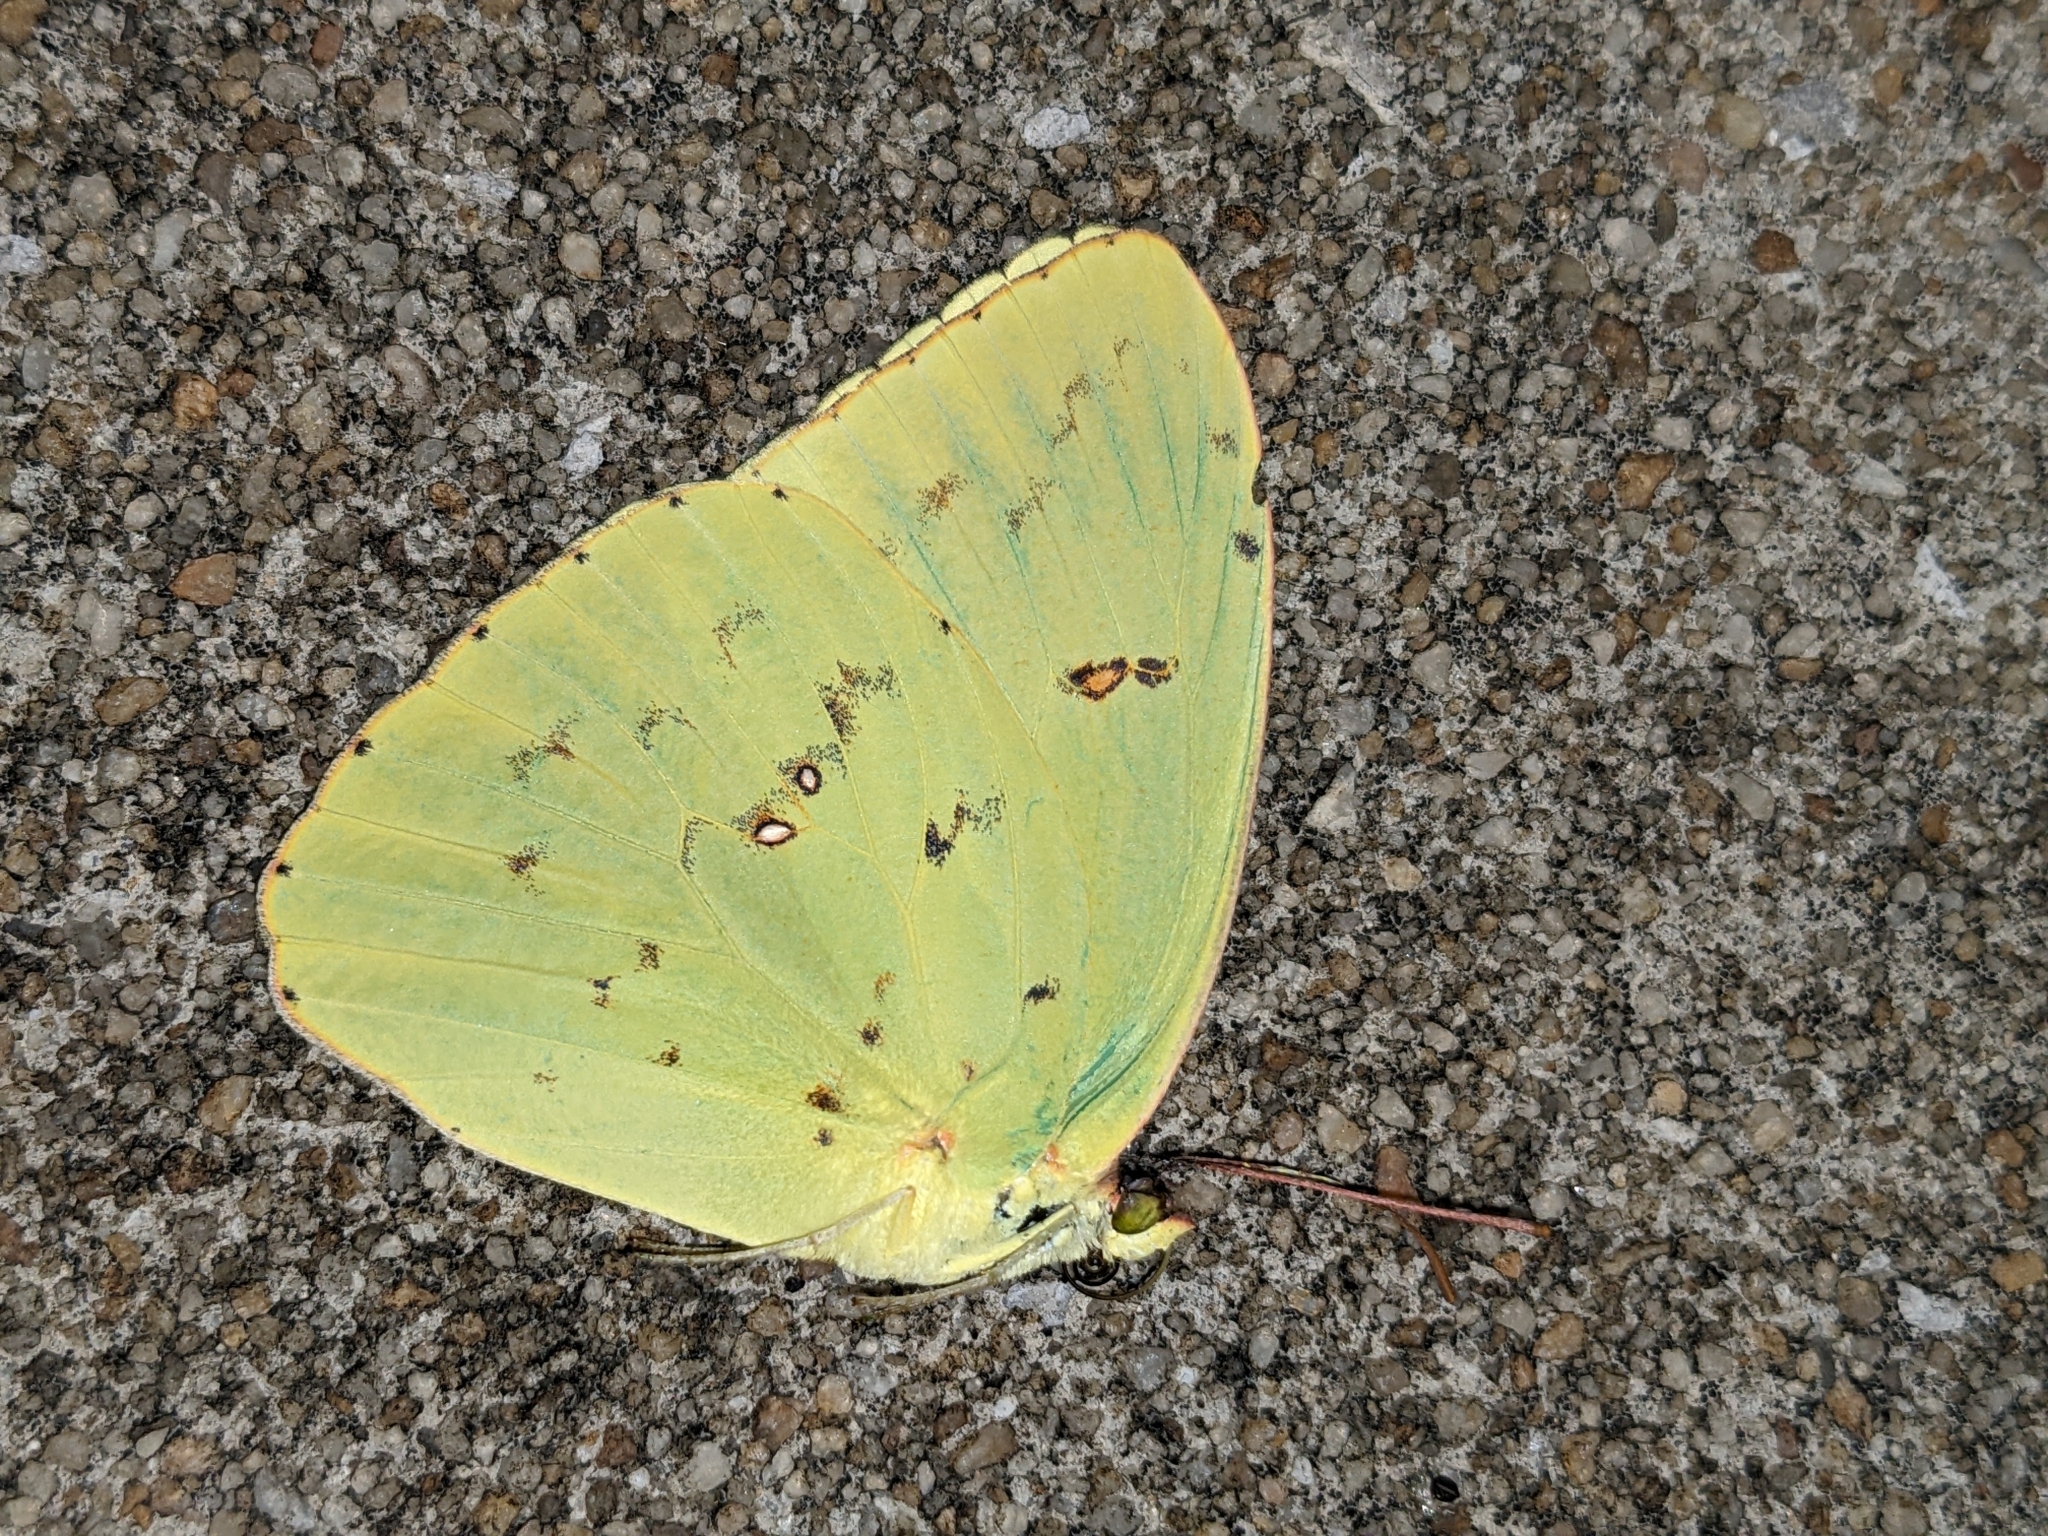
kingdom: Animalia
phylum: Arthropoda
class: Insecta
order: Lepidoptera
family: Pieridae
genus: Phoebis
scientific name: Phoebis sennae
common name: Cloudless sulphur
